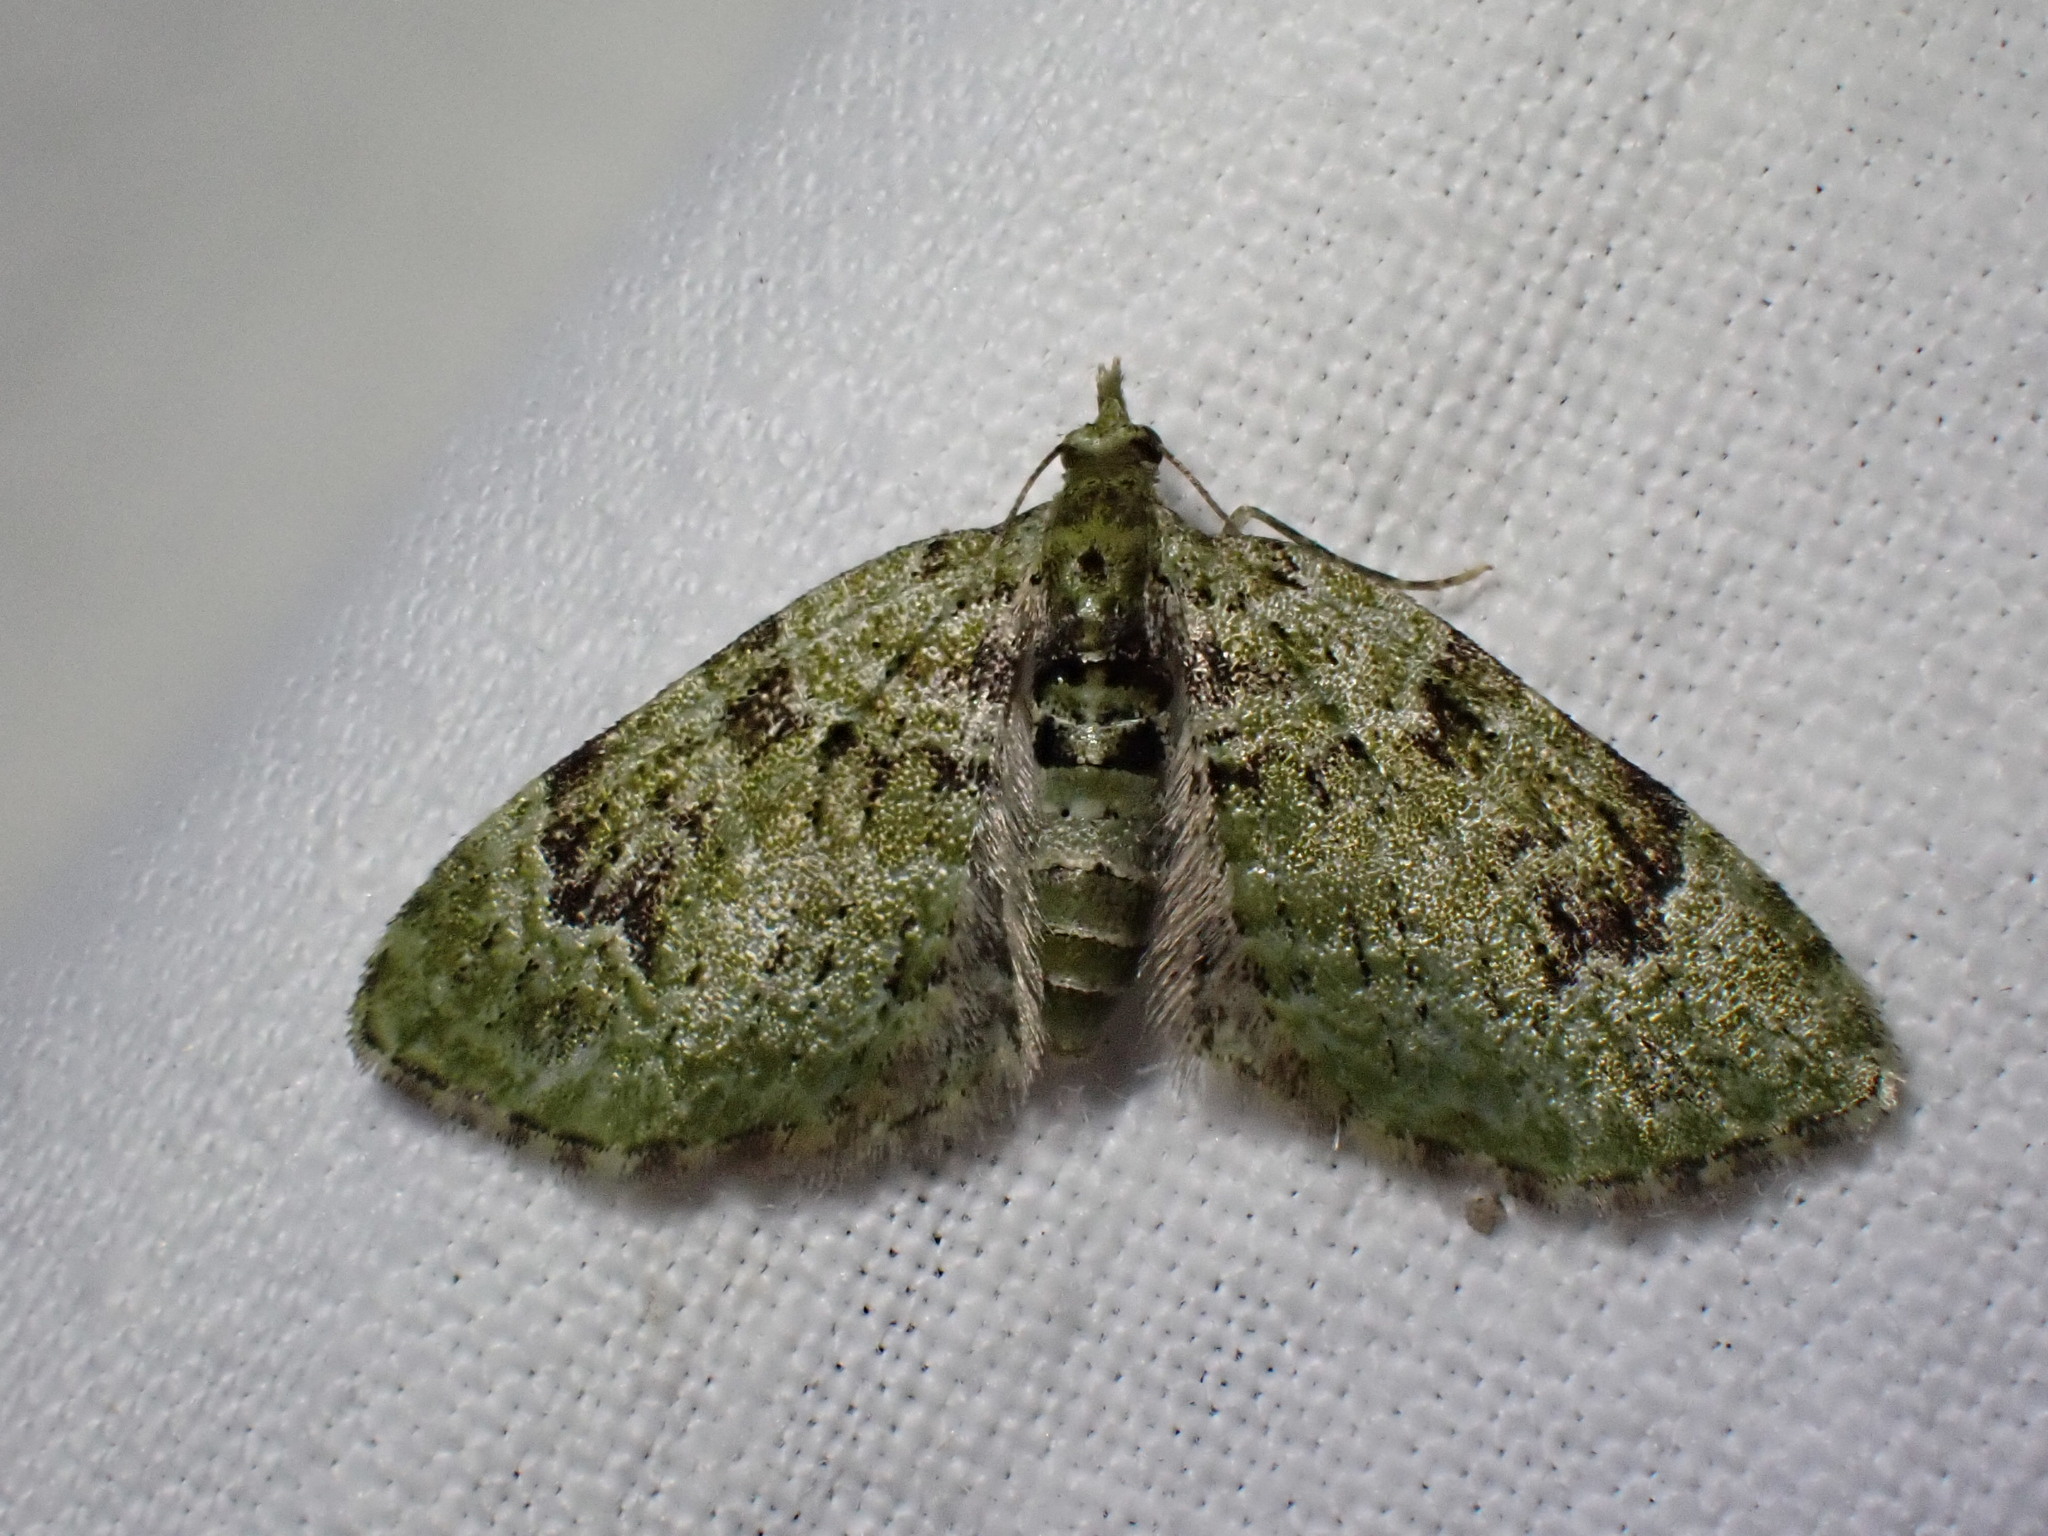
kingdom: Animalia
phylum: Arthropoda
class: Insecta
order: Lepidoptera
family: Geometridae
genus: Chloroclystis
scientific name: Chloroclystis v-ata
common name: V-pug
